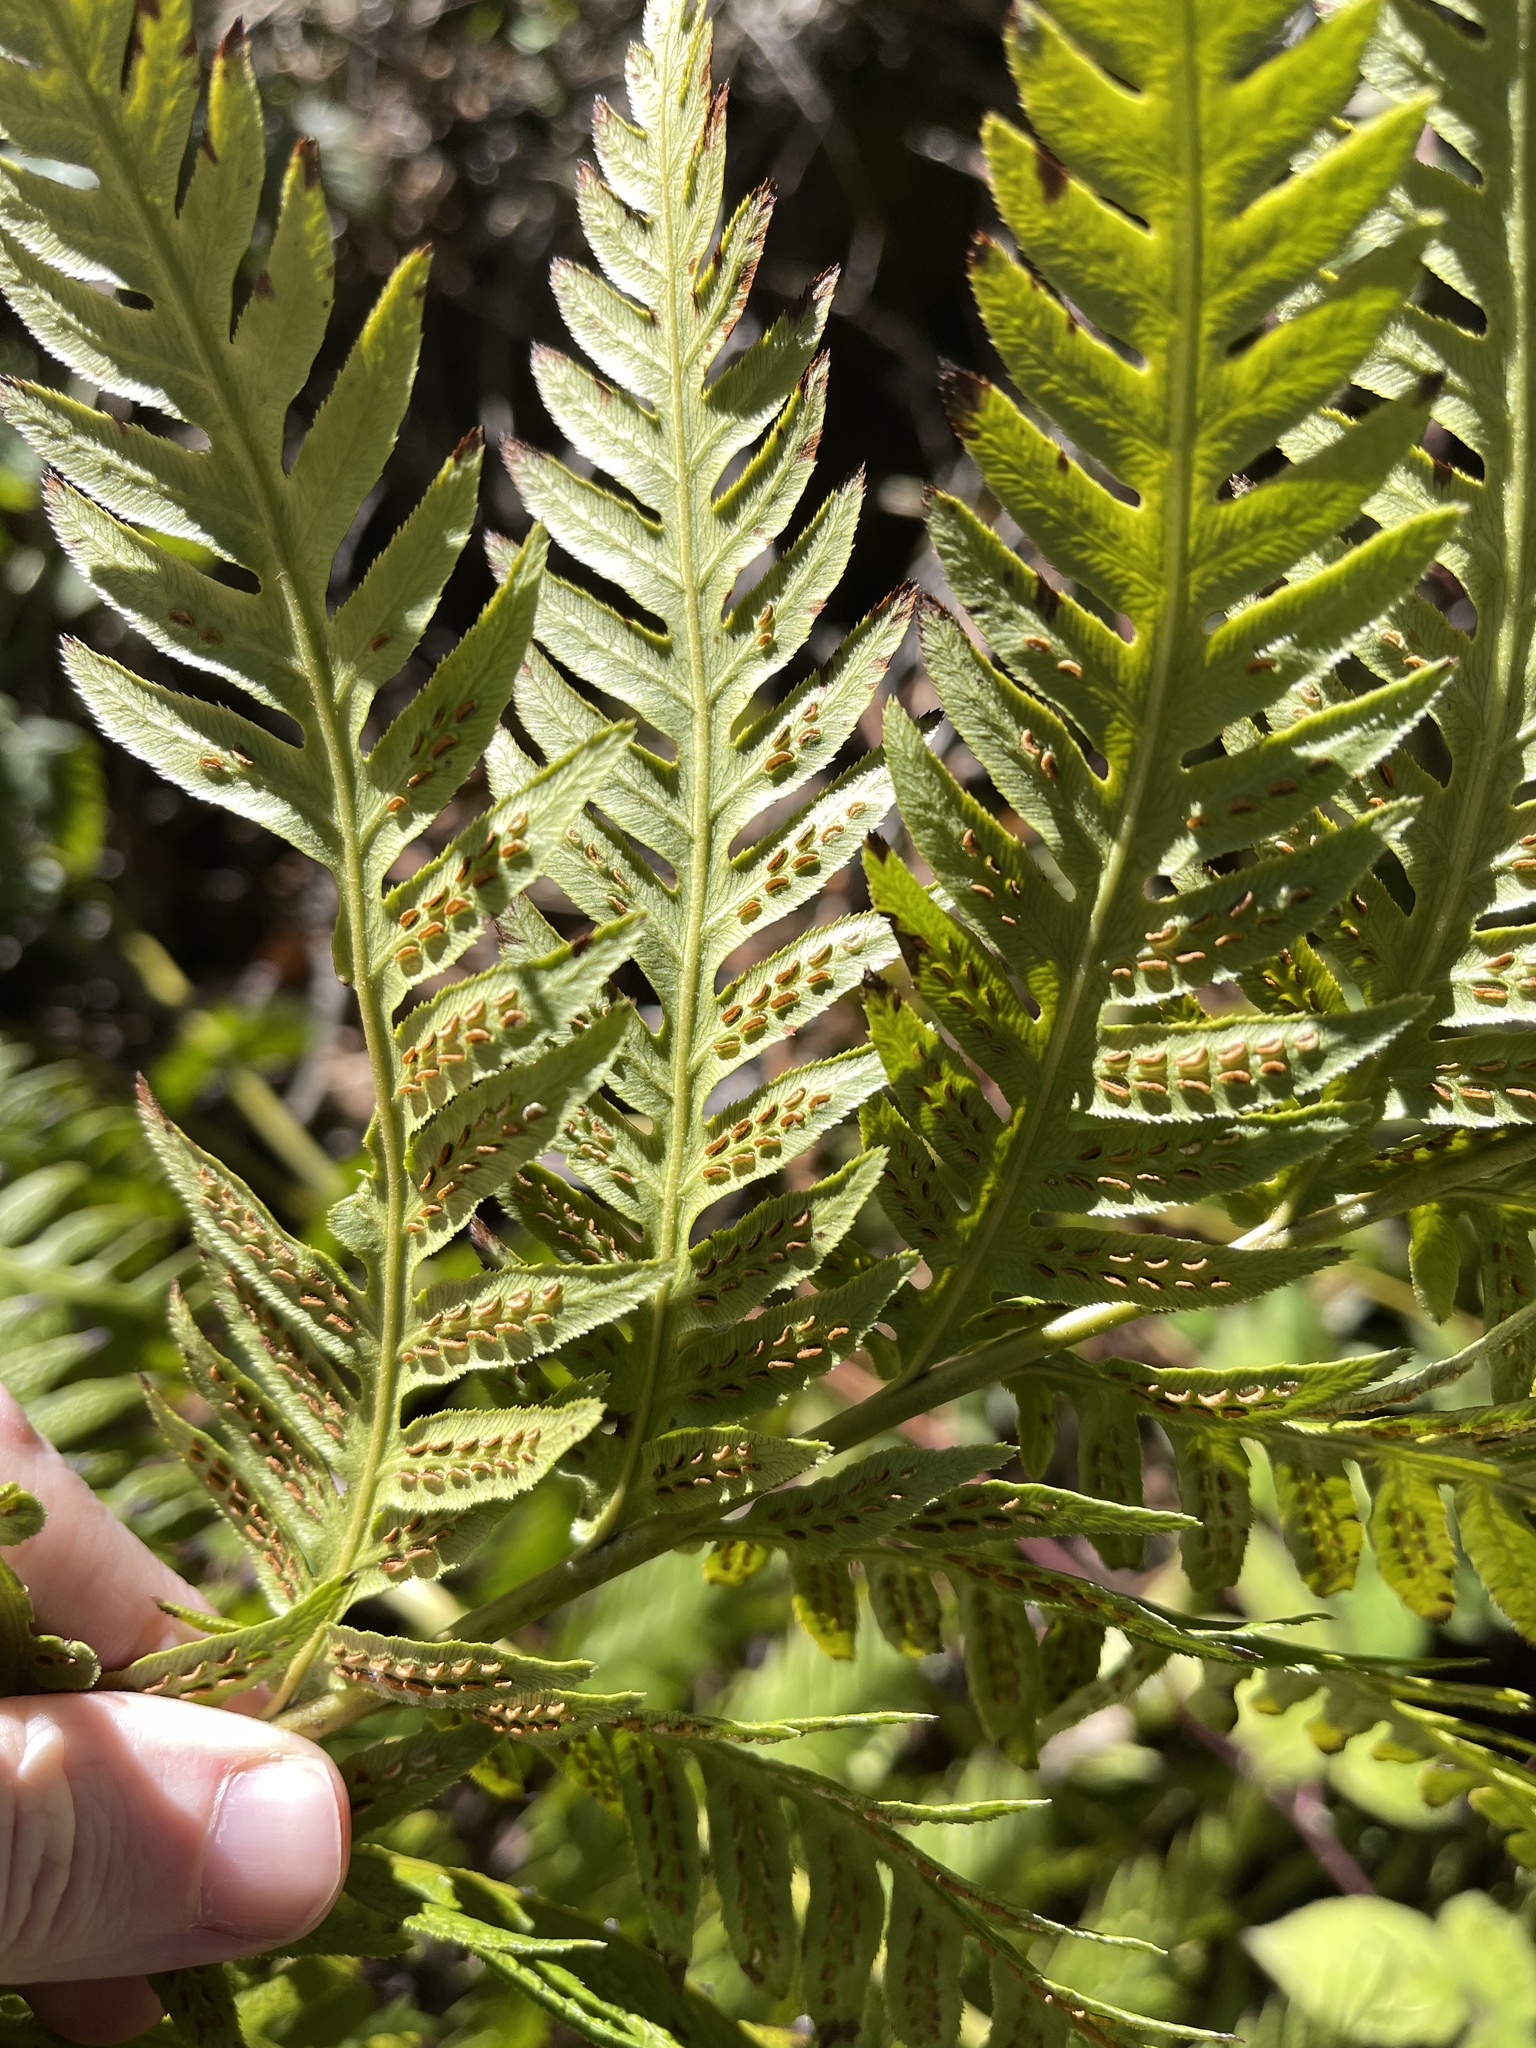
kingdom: Plantae
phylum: Tracheophyta
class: Polypodiopsida
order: Polypodiales
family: Blechnaceae
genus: Woodwardia
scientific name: Woodwardia fimbriata
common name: Giant chain fern
